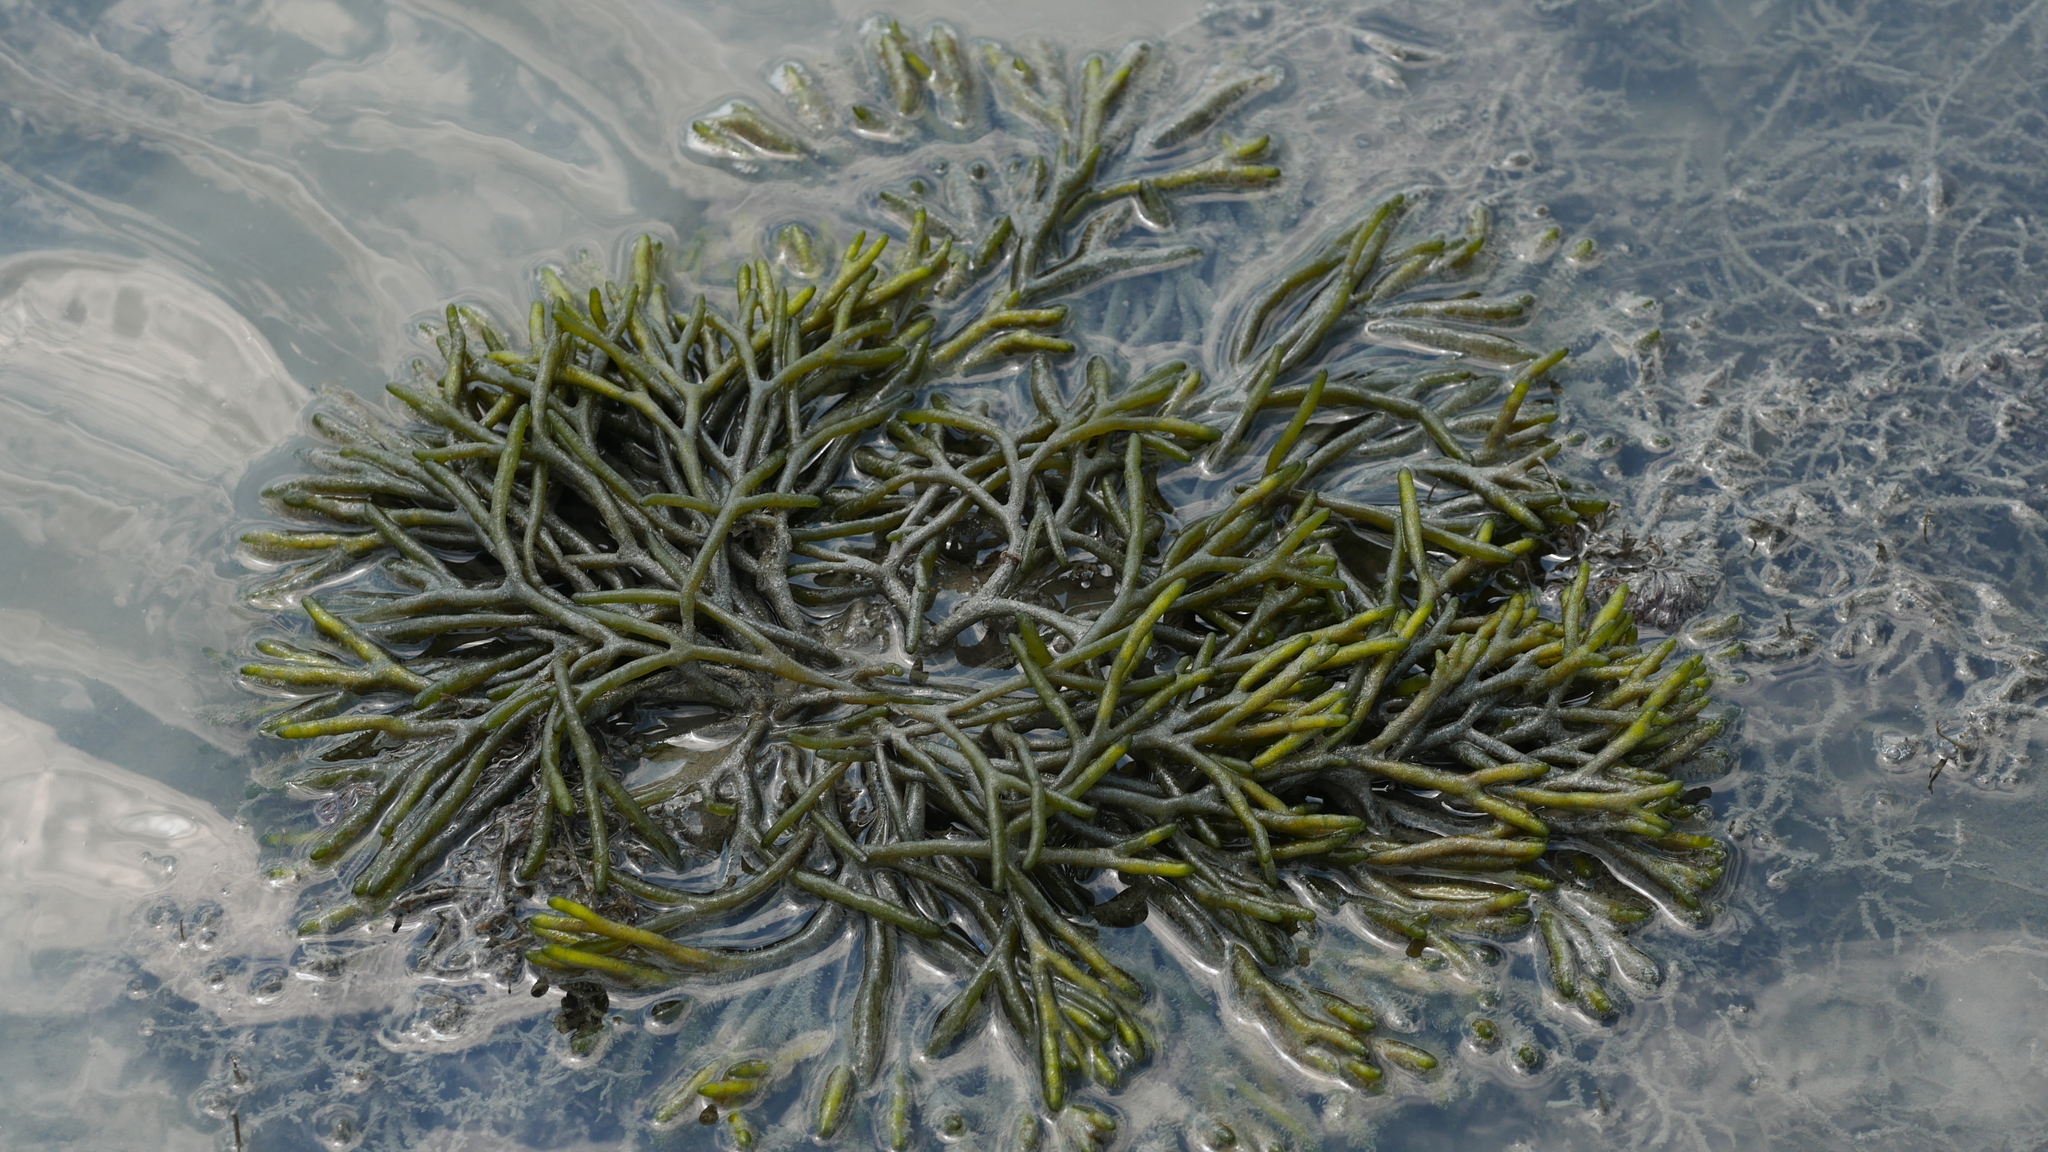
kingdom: Plantae
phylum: Chlorophyta
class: Ulvophyceae
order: Bryopsidales
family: Codiaceae
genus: Codium
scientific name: Codium fragile
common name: Dead man's fingers
